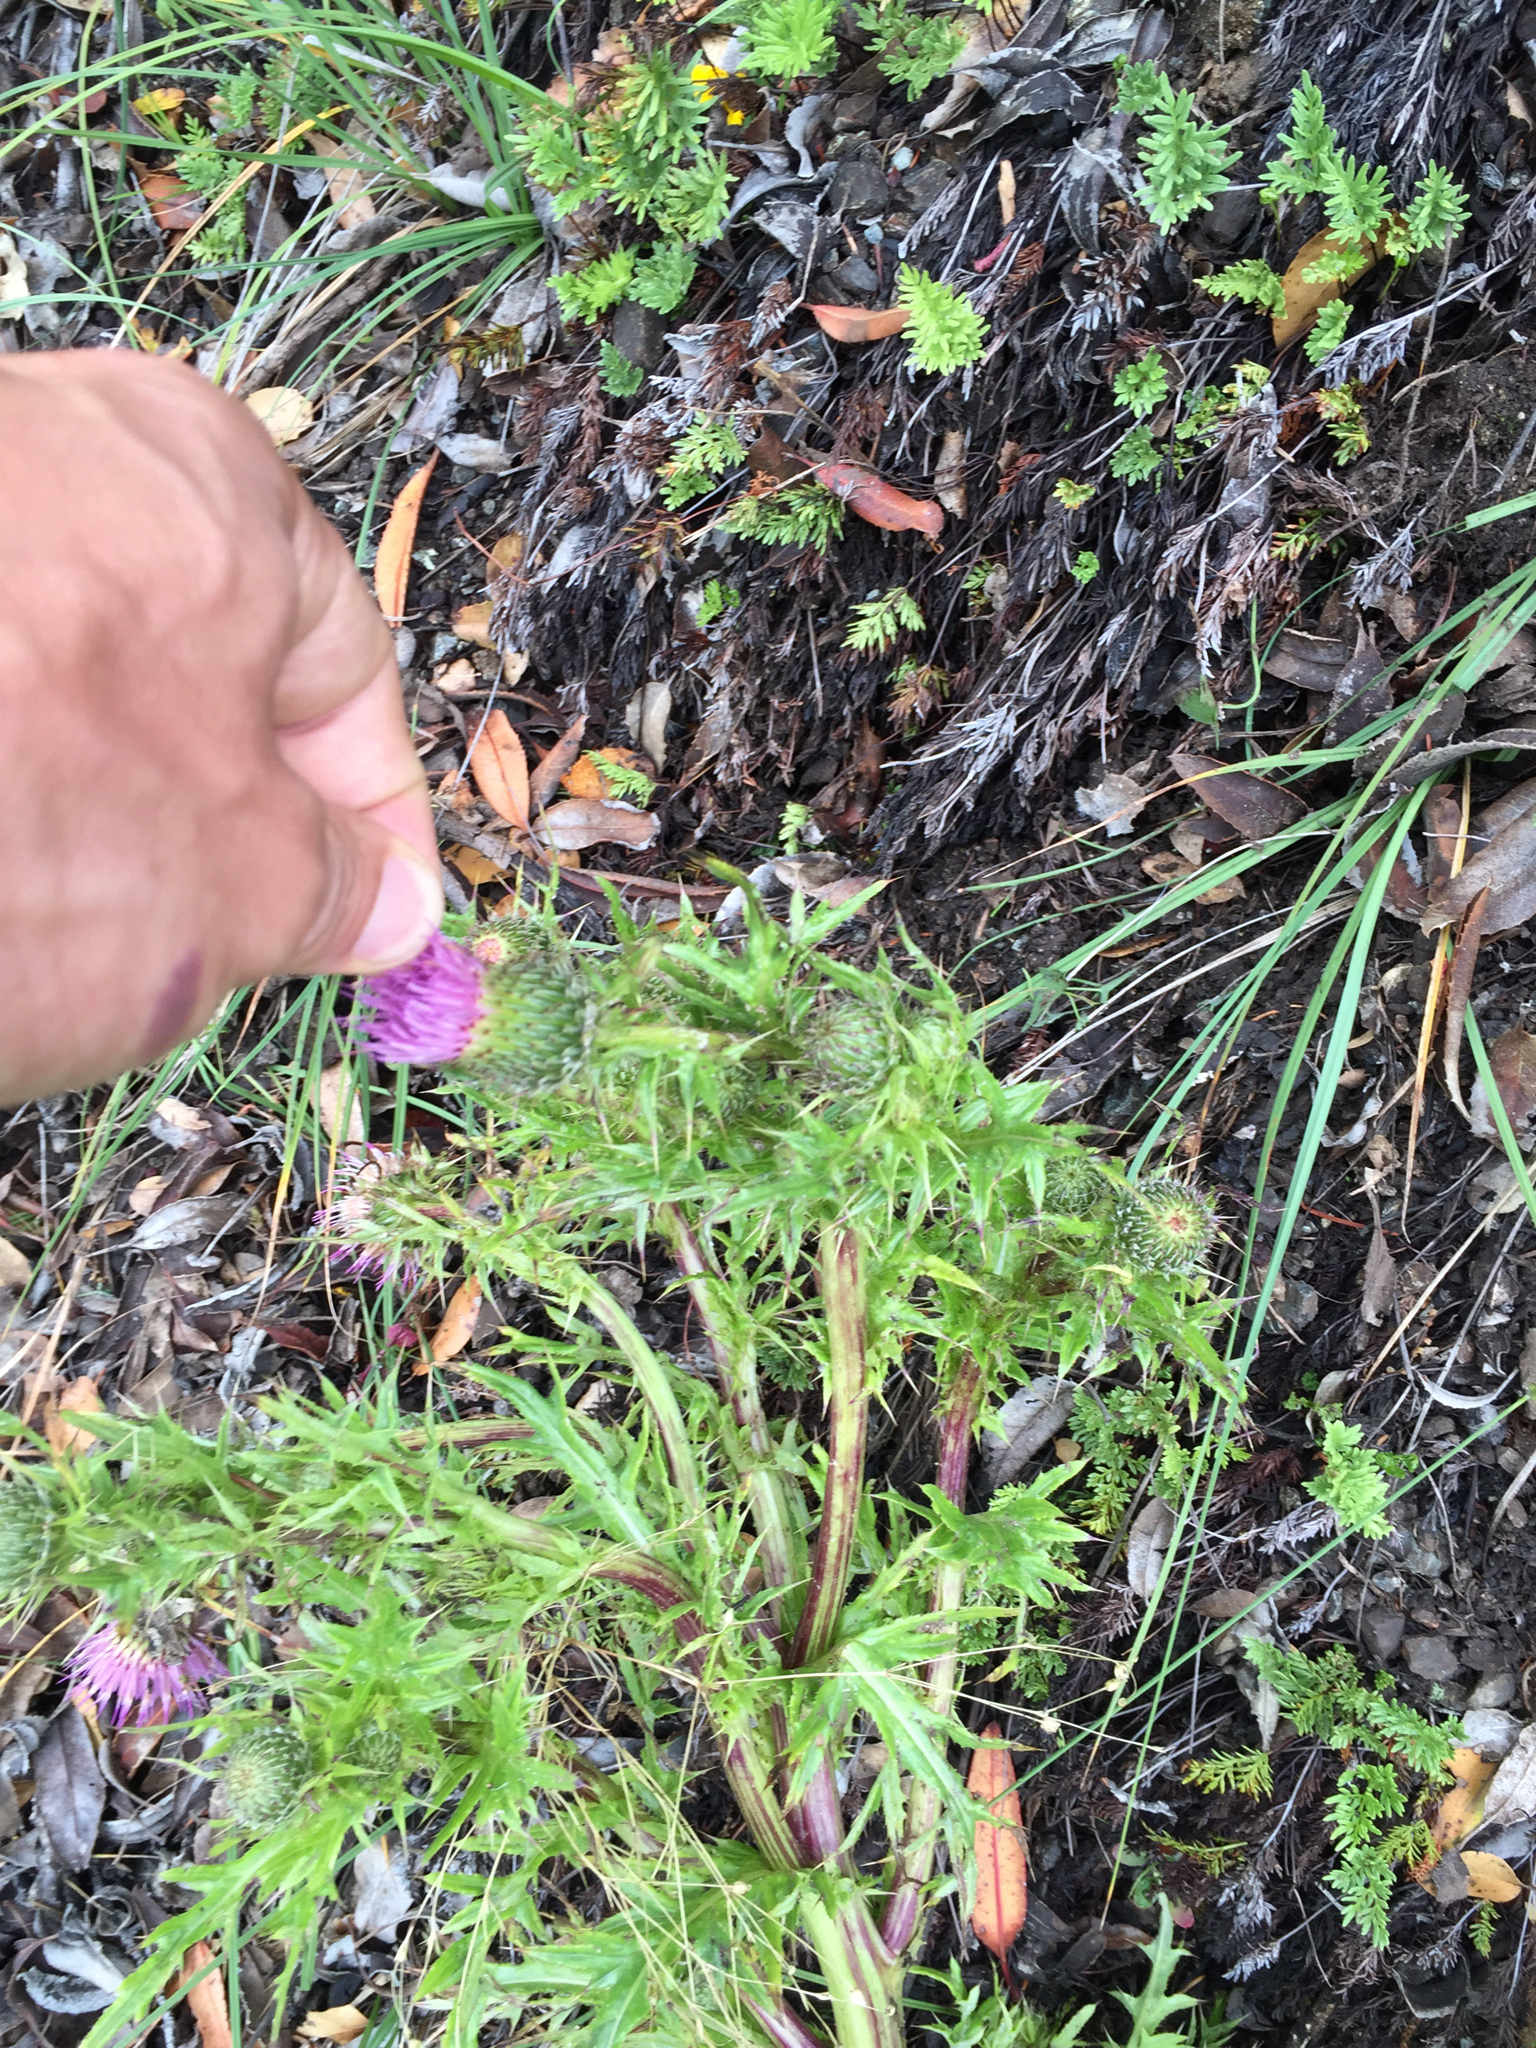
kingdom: Plantae
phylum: Tracheophyta
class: Magnoliopsida
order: Asterales
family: Asteraceae
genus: Cirsium
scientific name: Cirsium hydrophilum
